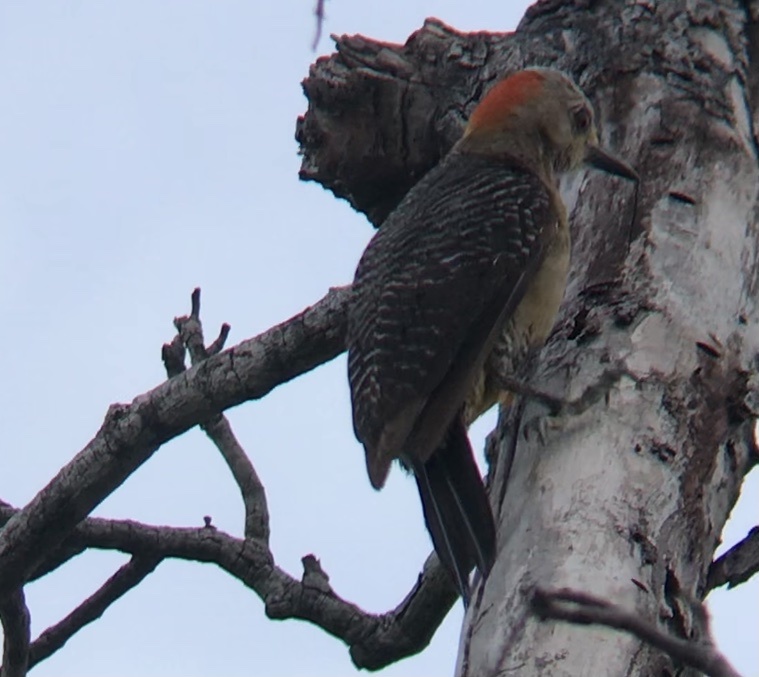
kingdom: Animalia
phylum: Chordata
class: Aves
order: Piciformes
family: Picidae
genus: Melanerpes
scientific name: Melanerpes aurifrons
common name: Golden-fronted woodpecker
